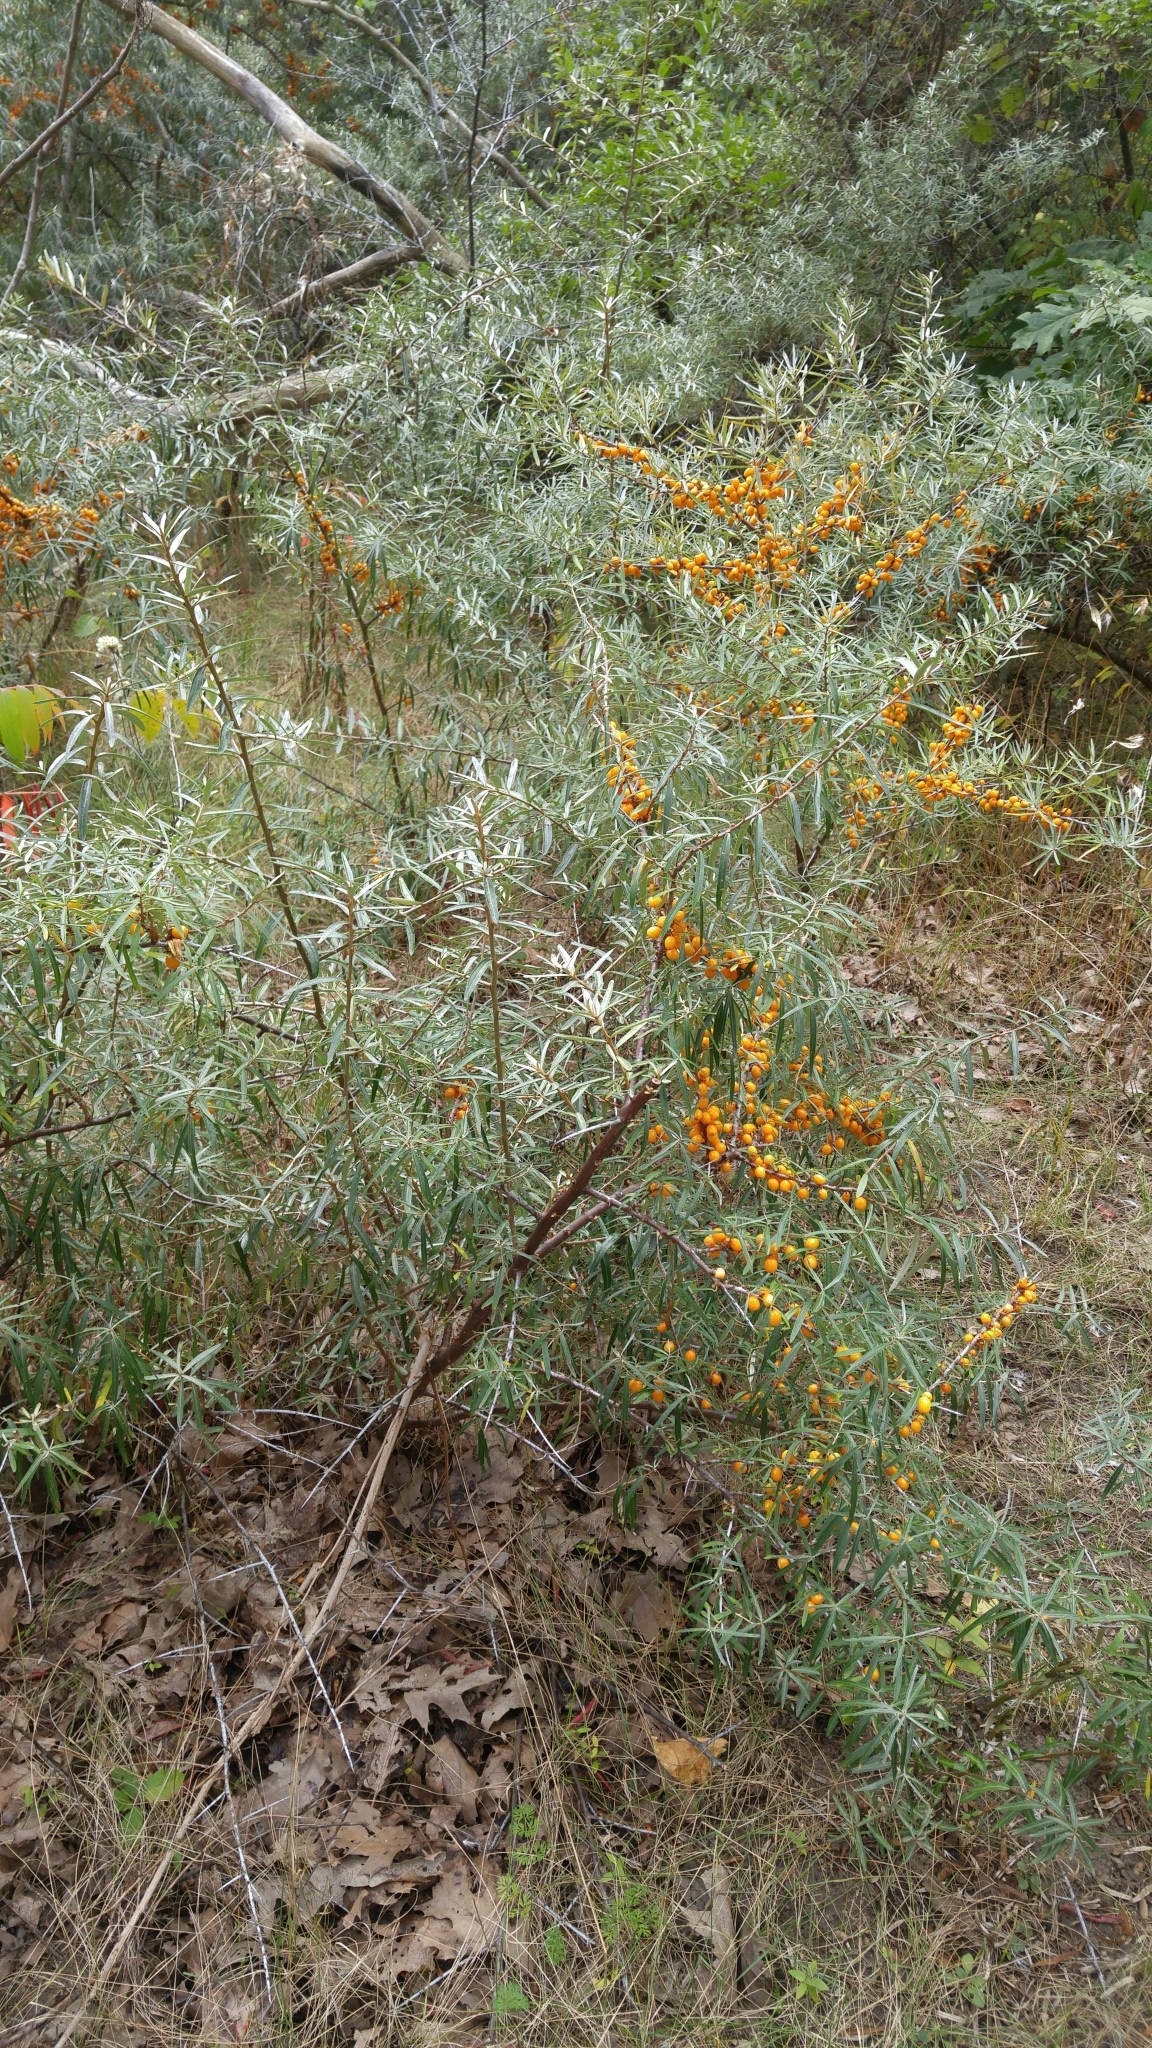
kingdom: Plantae
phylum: Tracheophyta
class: Magnoliopsida
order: Rosales
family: Elaeagnaceae
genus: Elaeagnus
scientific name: Elaeagnus angustifolia
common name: Russian olive
